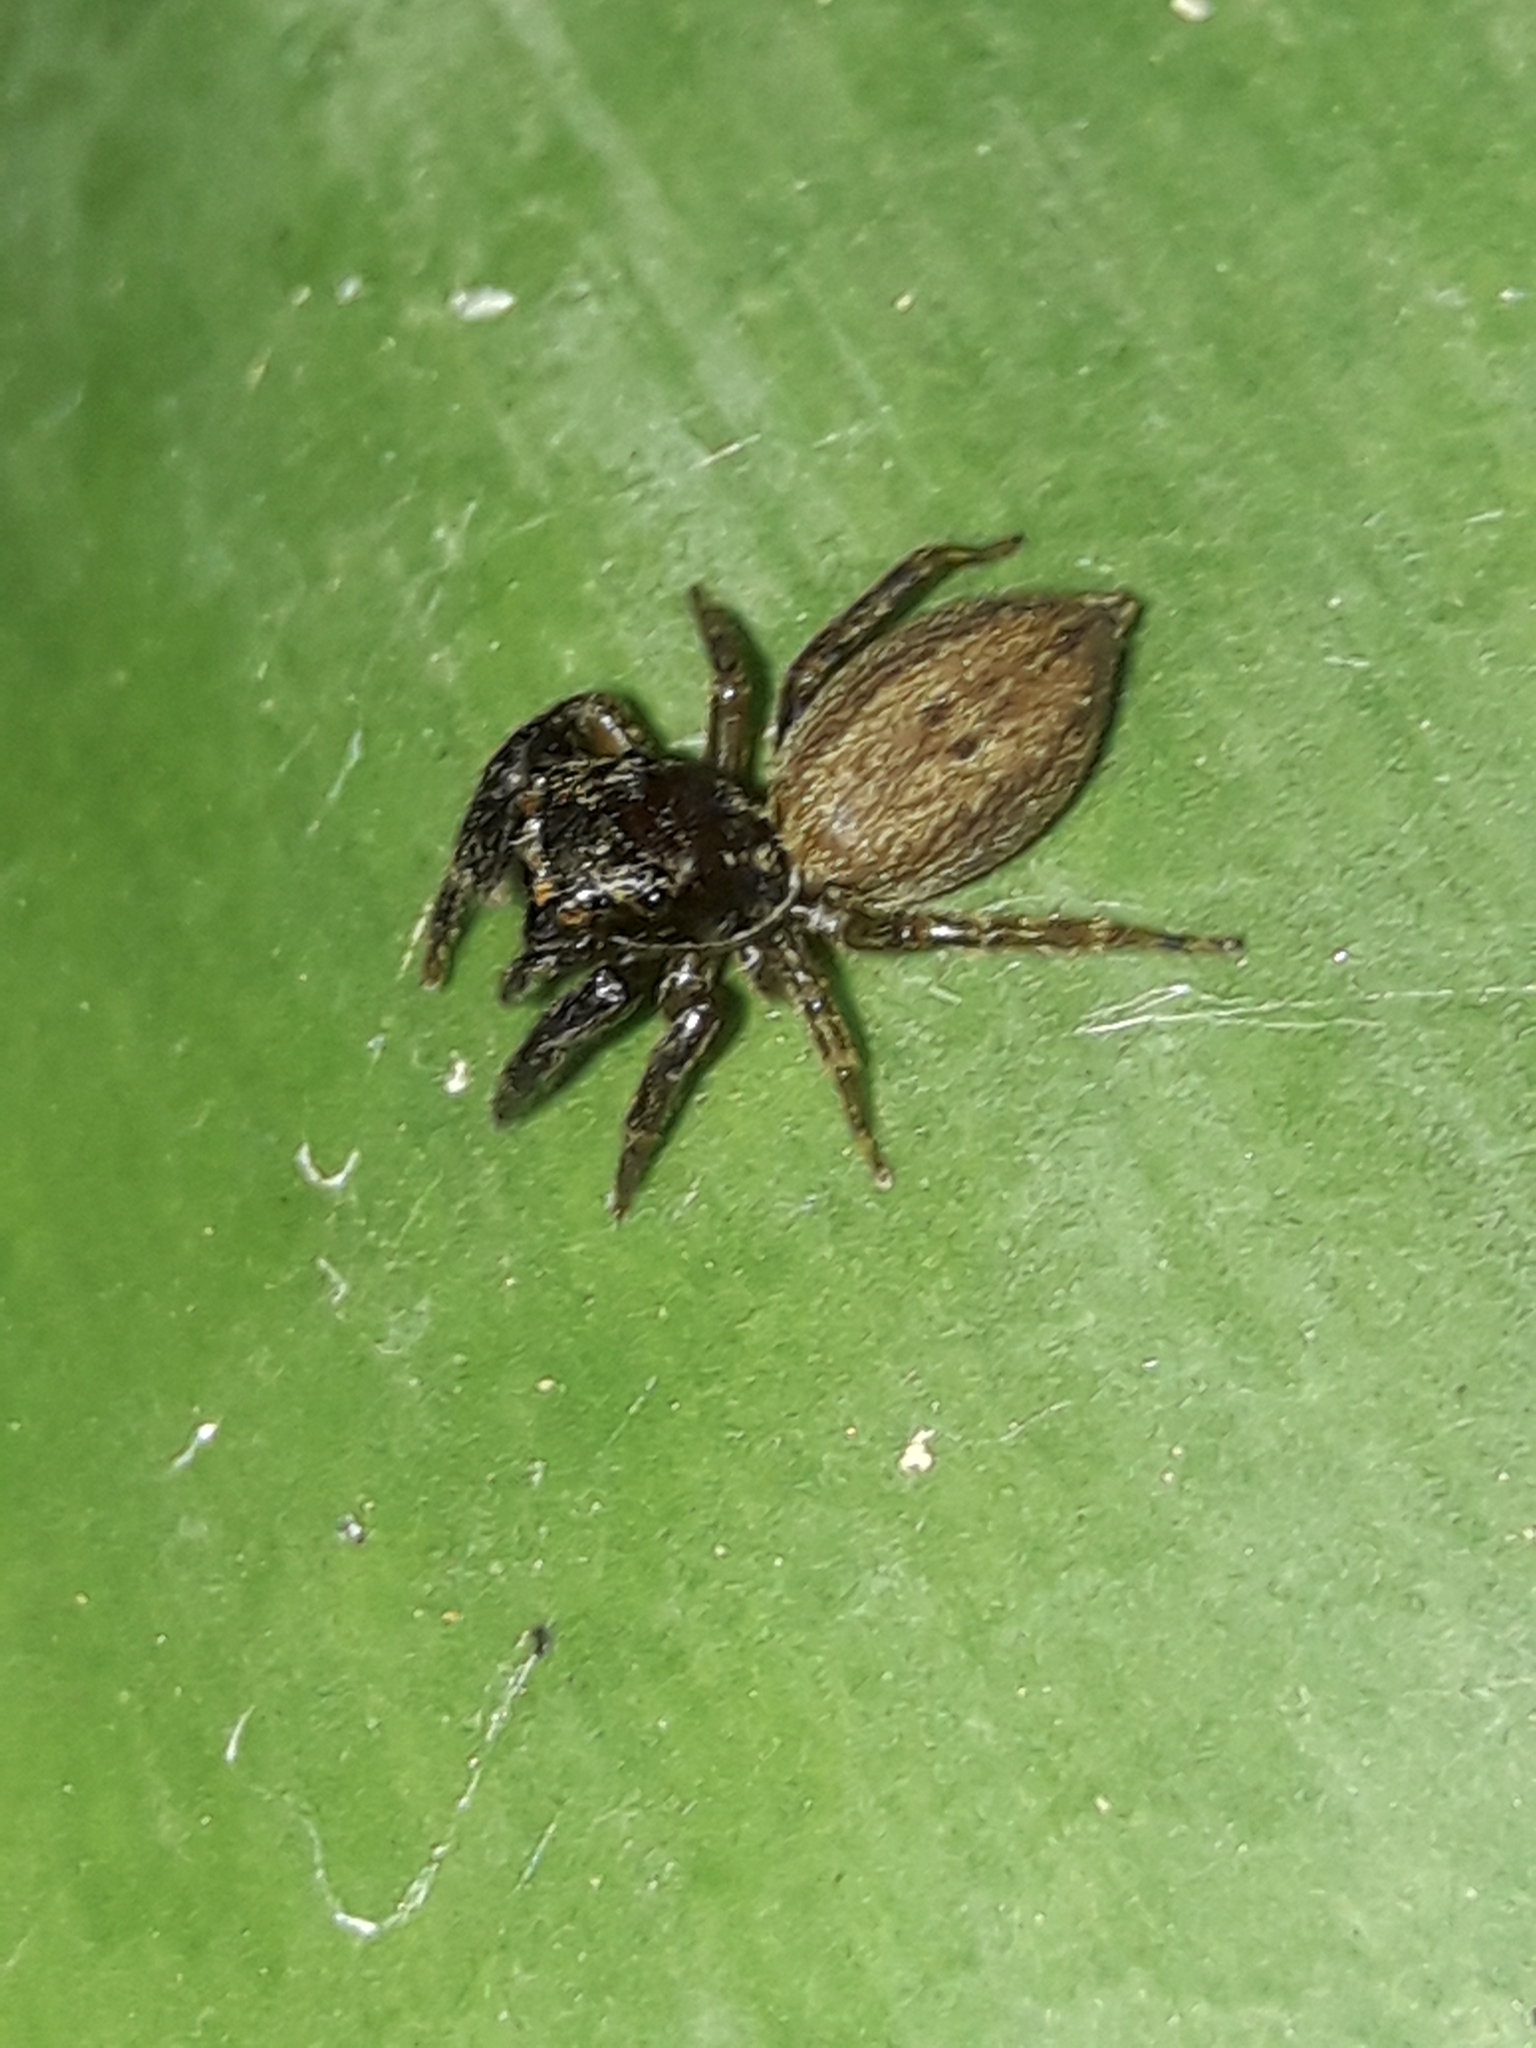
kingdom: Animalia
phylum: Arthropoda
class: Arachnida
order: Araneae
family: Salticidae
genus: Trite
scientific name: Trite auricoma
